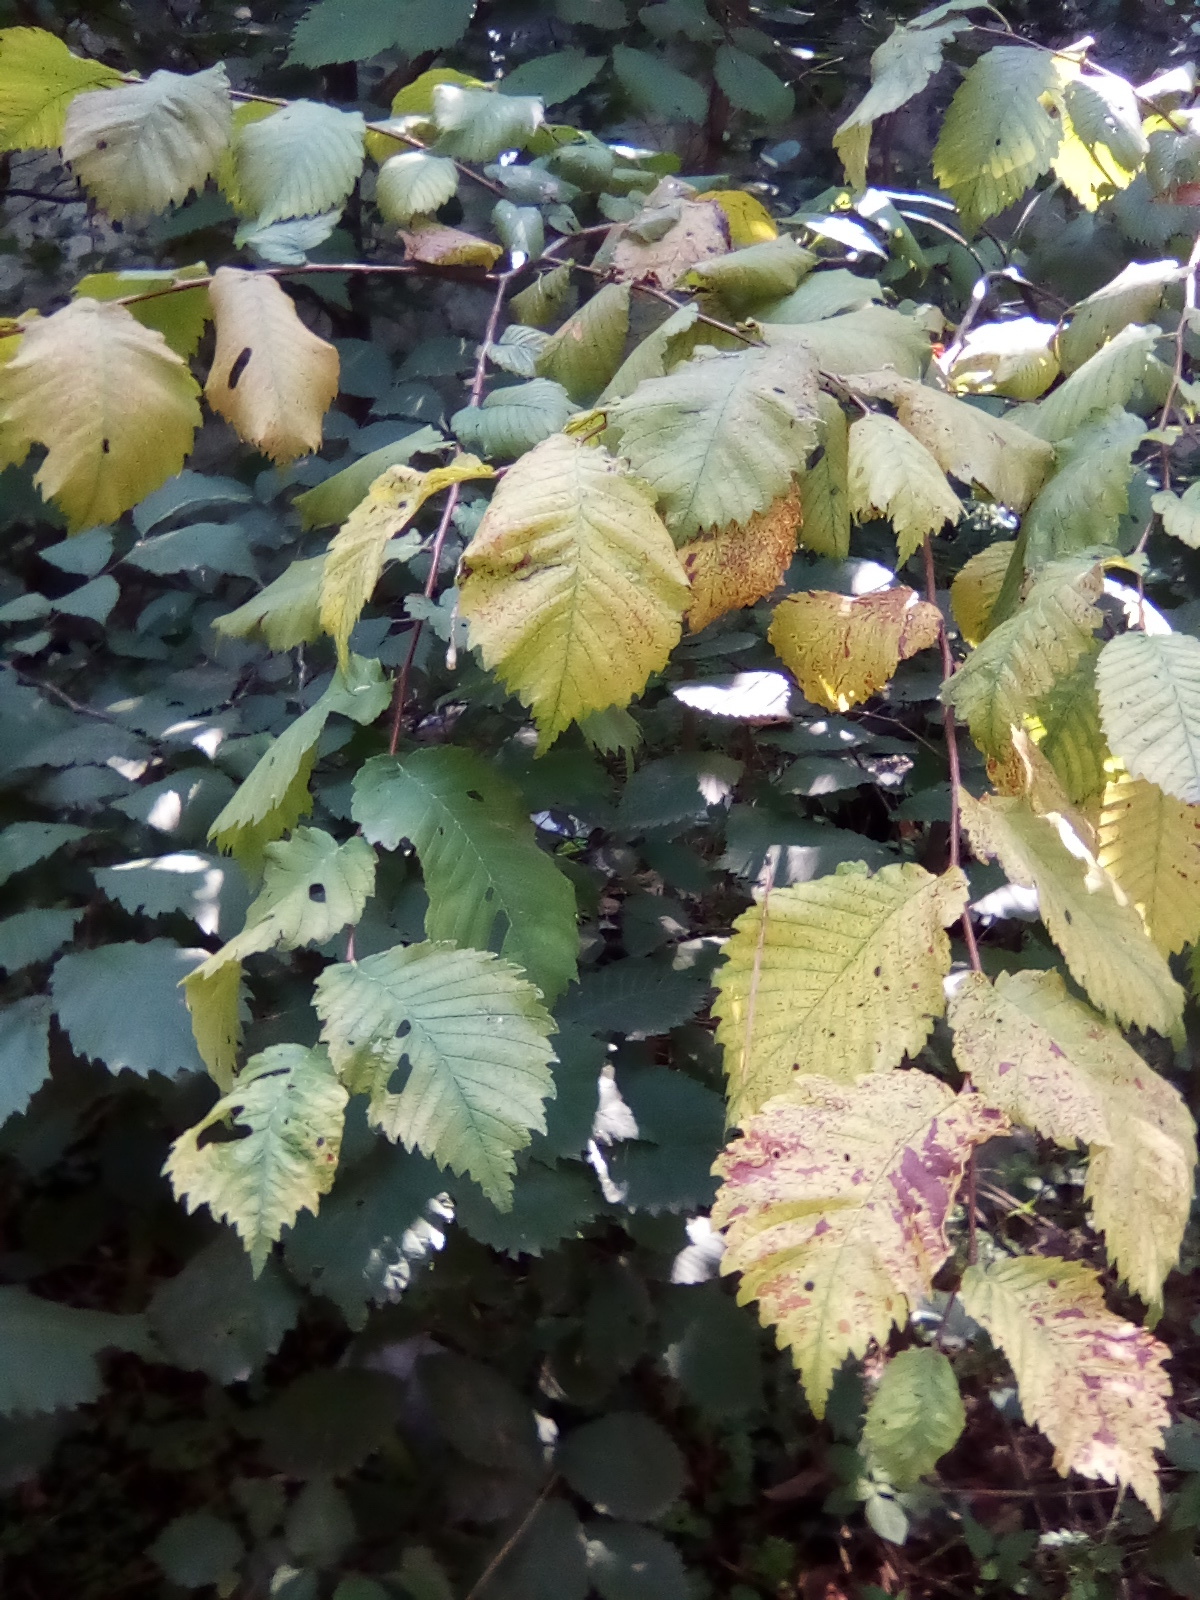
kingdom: Plantae
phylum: Tracheophyta
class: Magnoliopsida
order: Rosales
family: Ulmaceae
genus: Ulmus
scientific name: Ulmus laevis
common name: European white-elm
